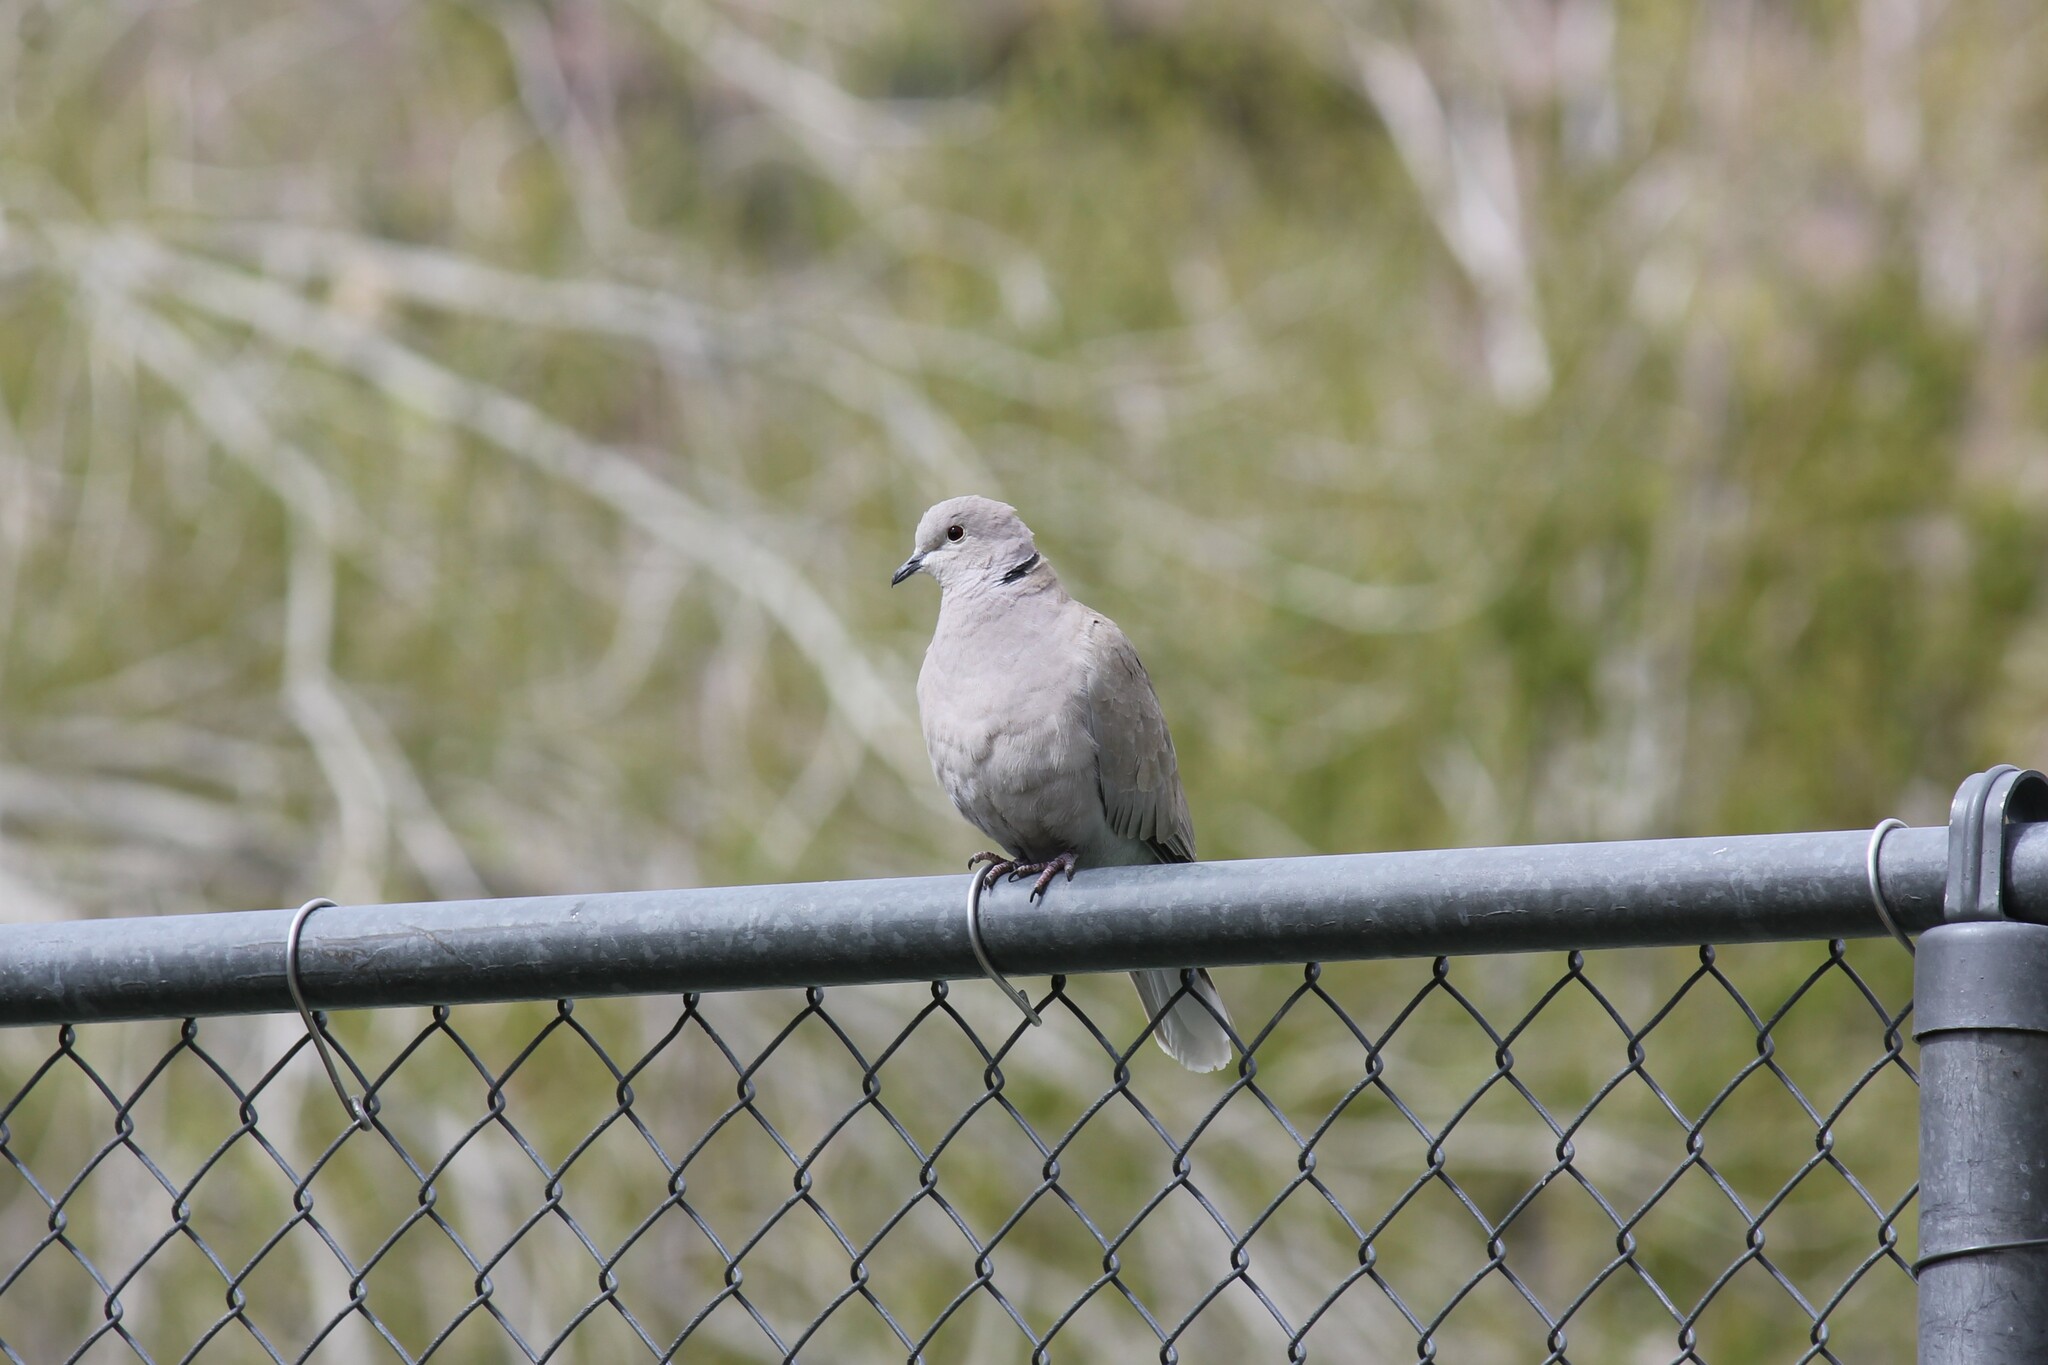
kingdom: Animalia
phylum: Chordata
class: Aves
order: Columbiformes
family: Columbidae
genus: Streptopelia
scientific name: Streptopelia decaocto
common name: Eurasian collared dove
